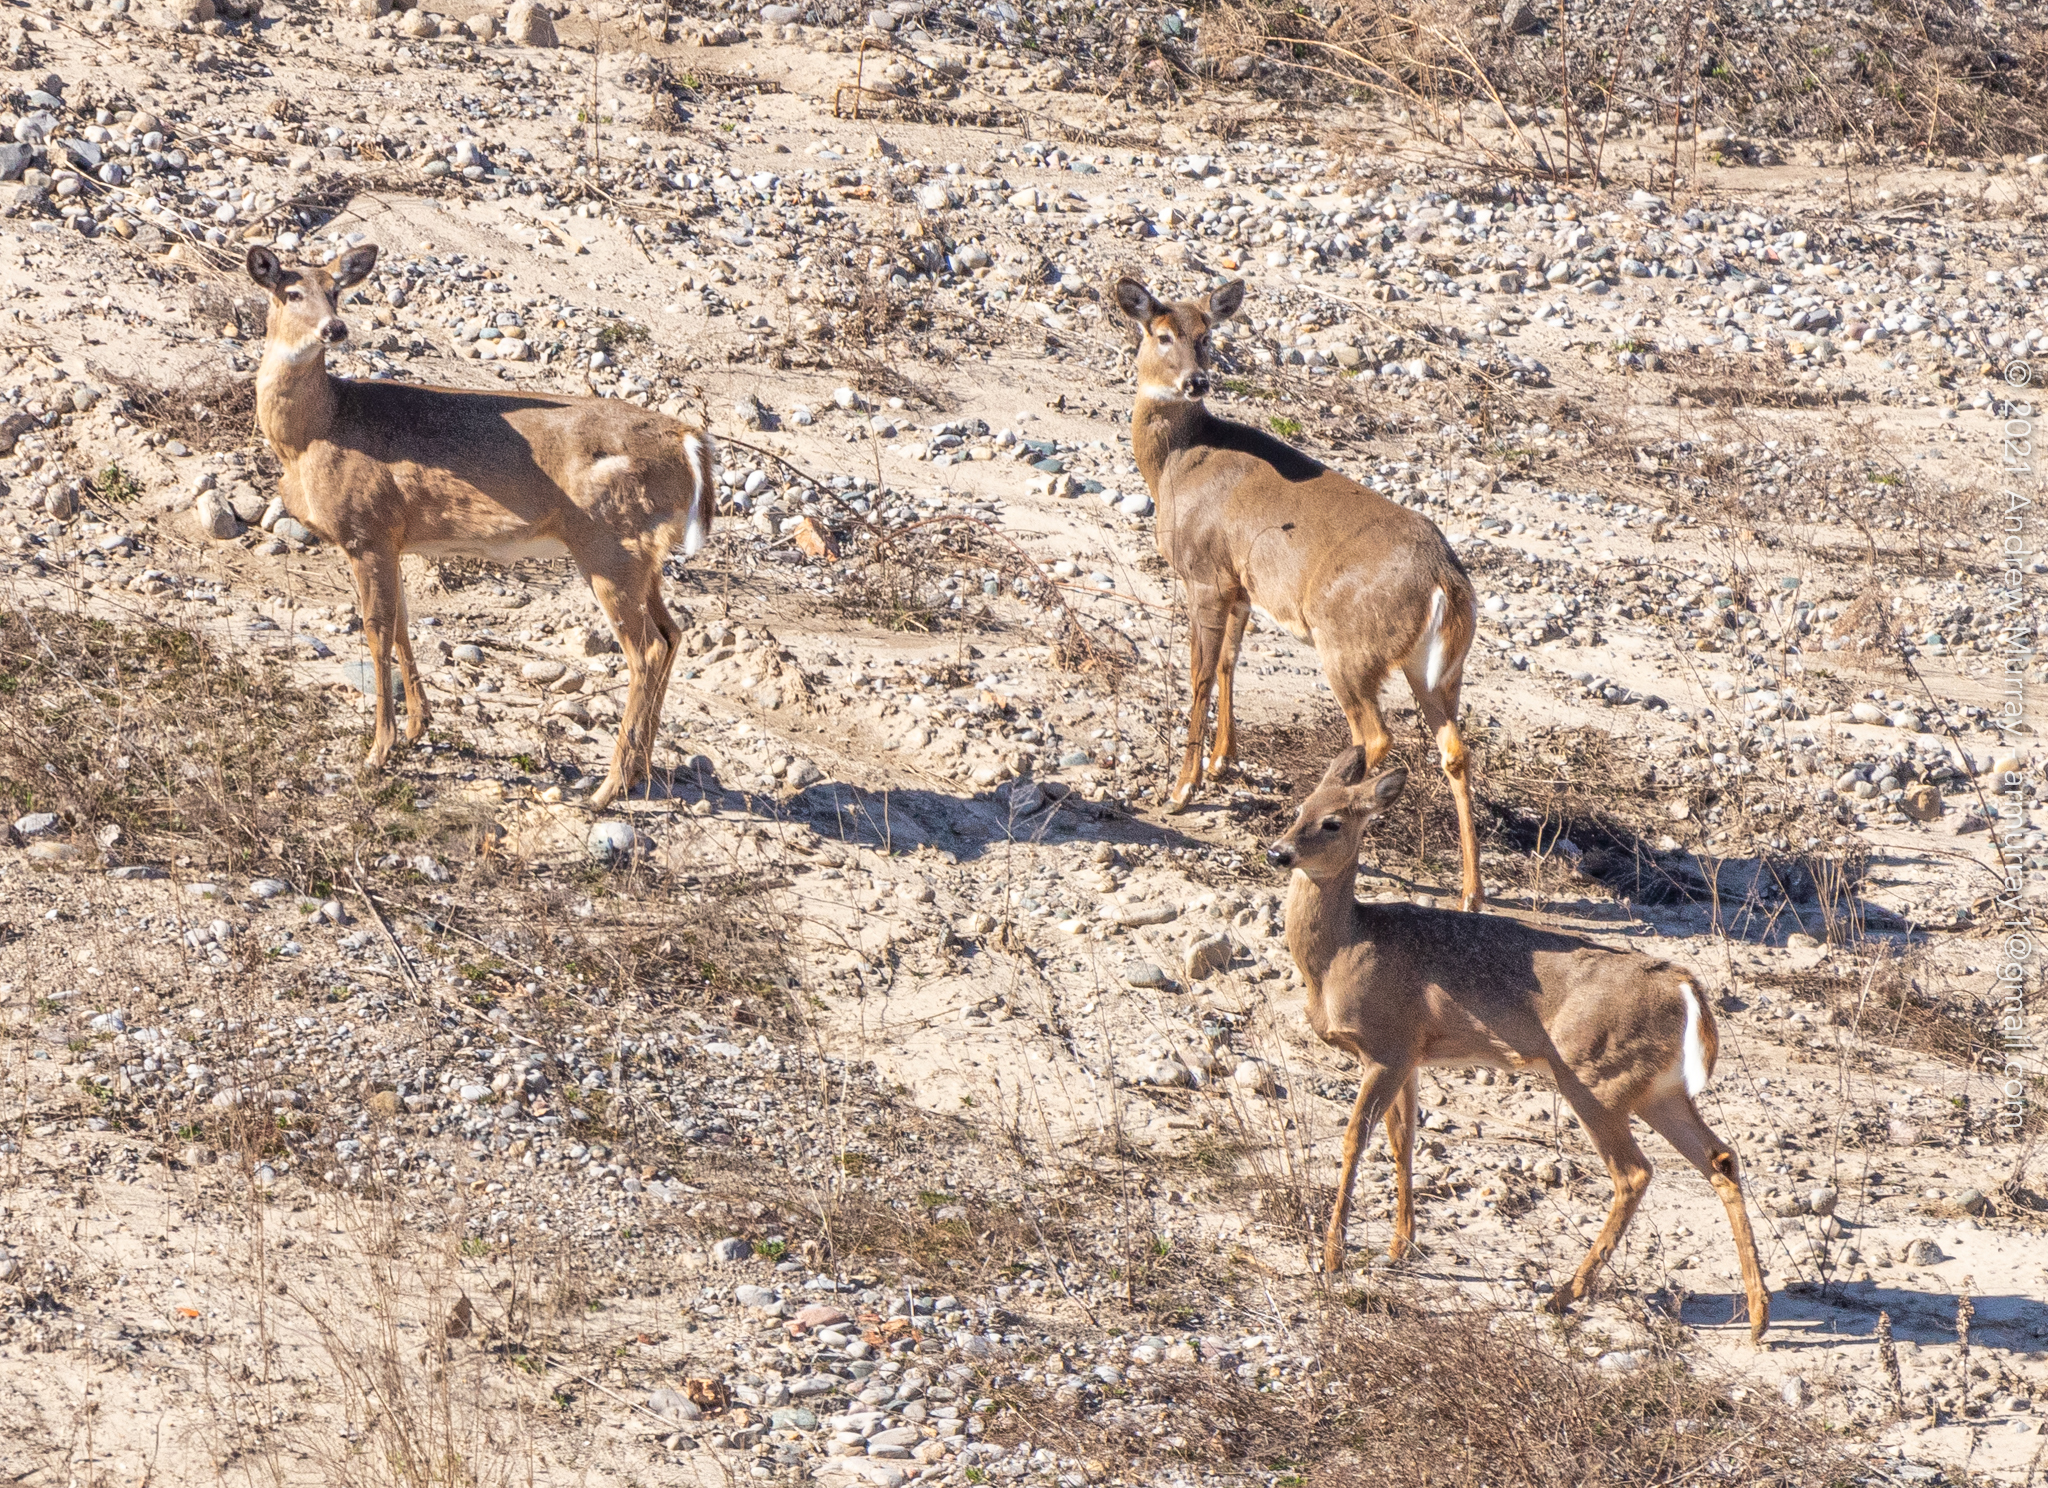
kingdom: Animalia
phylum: Chordata
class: Mammalia
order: Artiodactyla
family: Cervidae
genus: Odocoileus
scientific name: Odocoileus virginianus
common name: White-tailed deer
